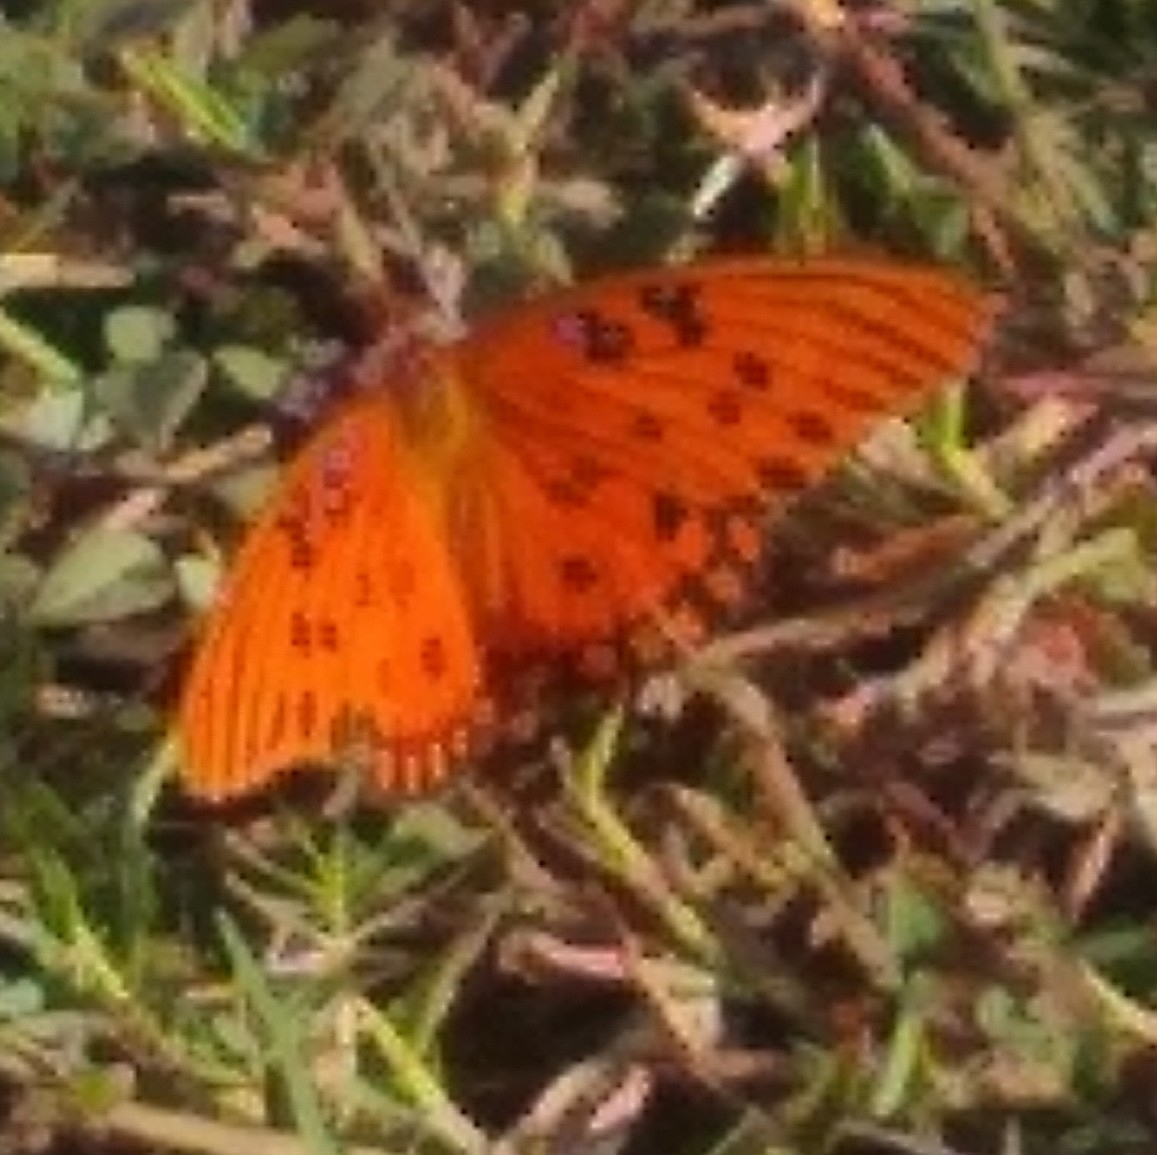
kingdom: Animalia
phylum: Arthropoda
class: Insecta
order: Lepidoptera
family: Nymphalidae
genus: Dione
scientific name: Dione vanillae
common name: Gulf fritillary
